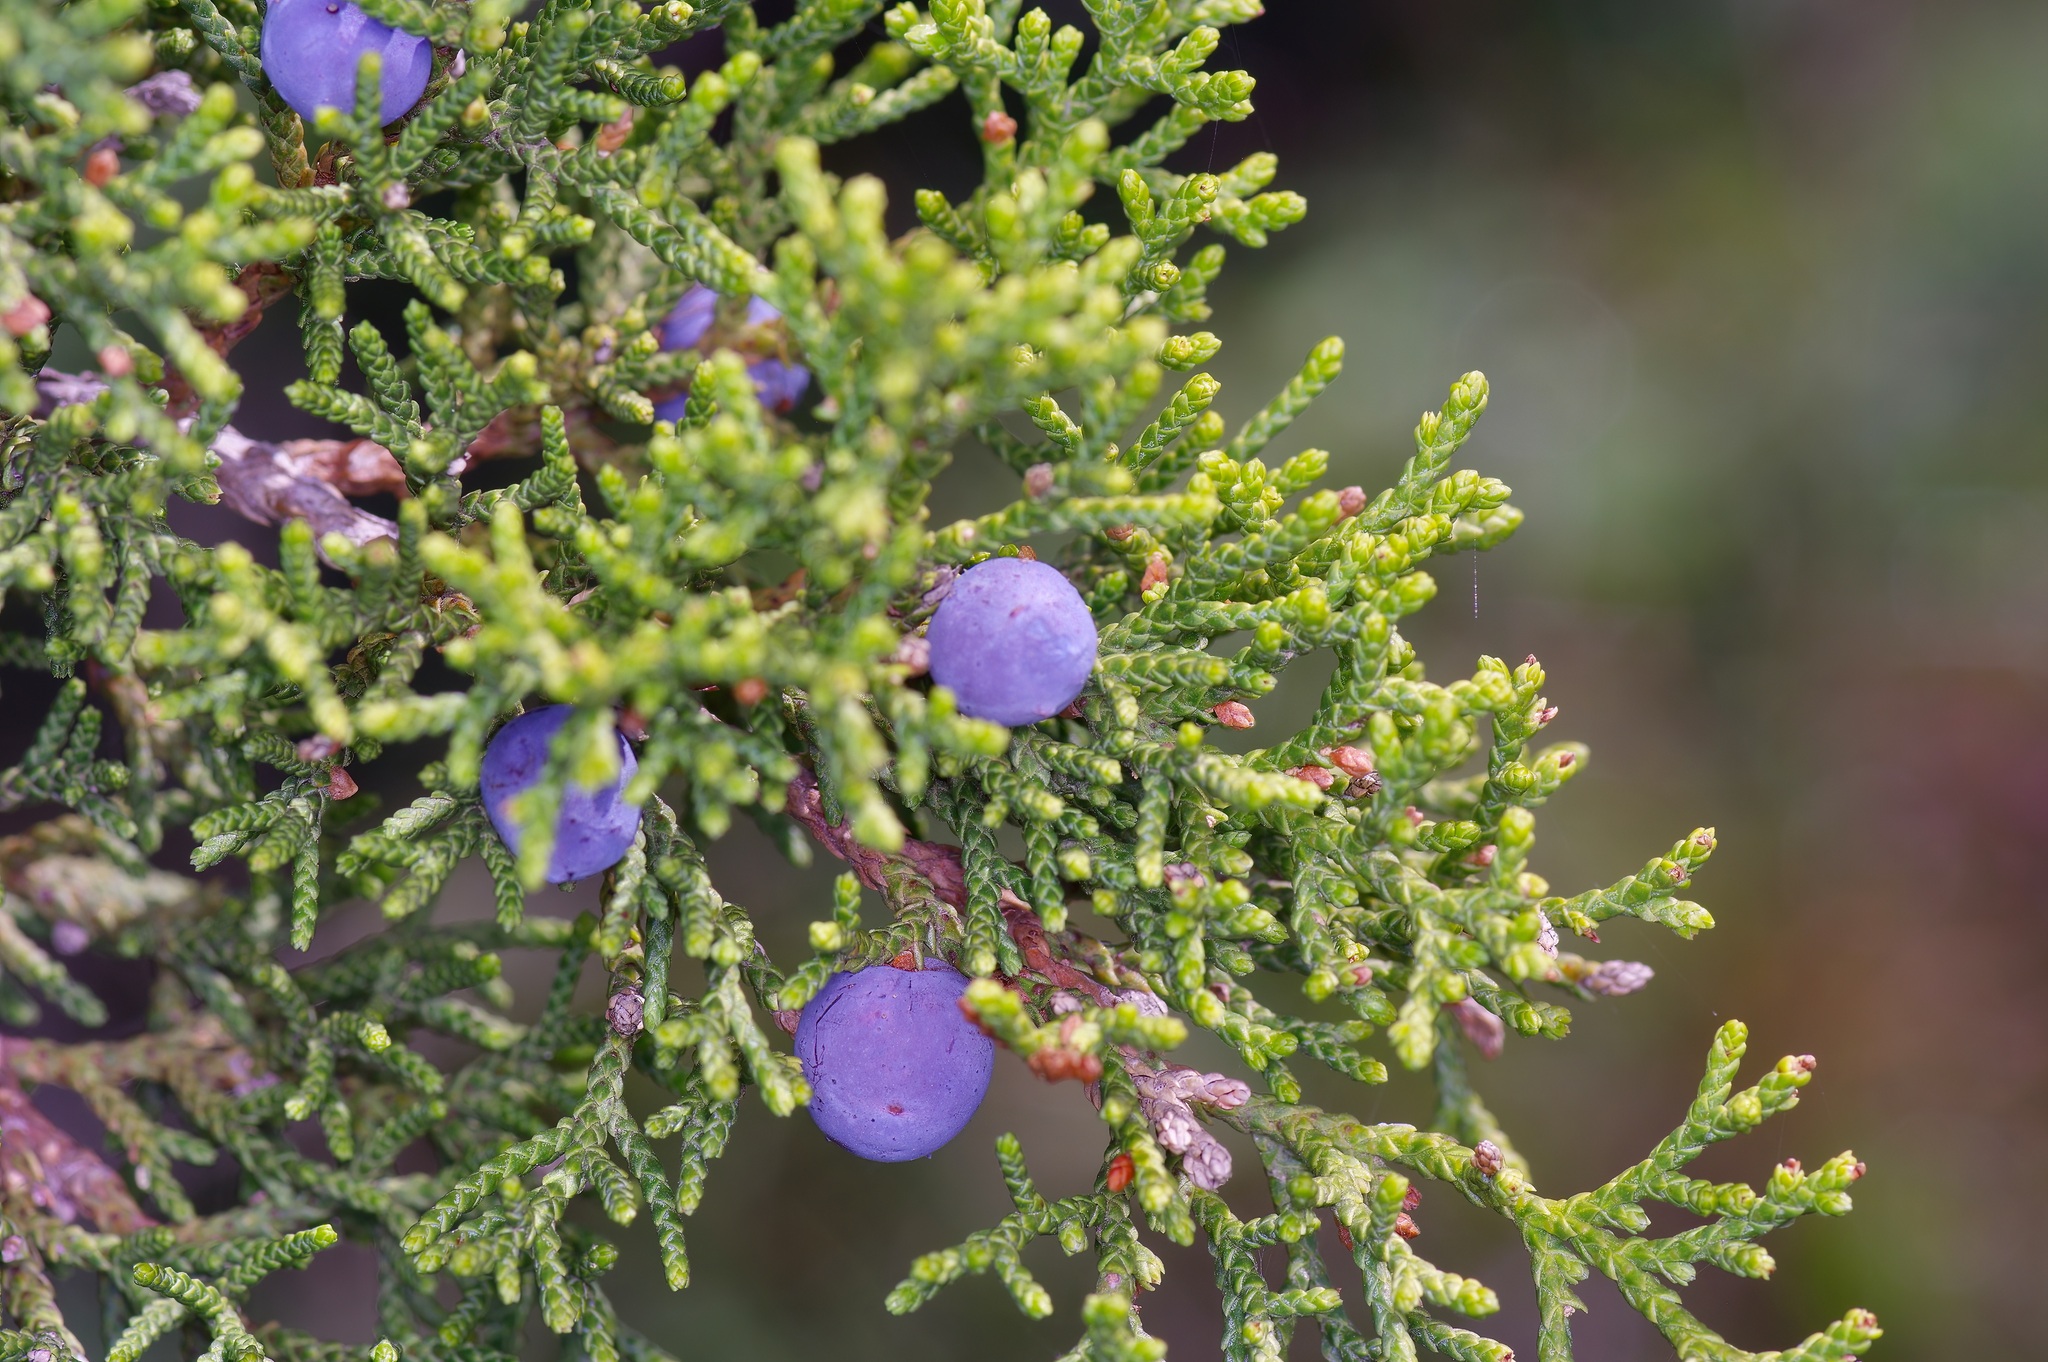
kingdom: Plantae
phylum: Tracheophyta
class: Pinopsida
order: Pinales
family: Cupressaceae
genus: Juniperus
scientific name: Juniperus ashei
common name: Mexican juniper
